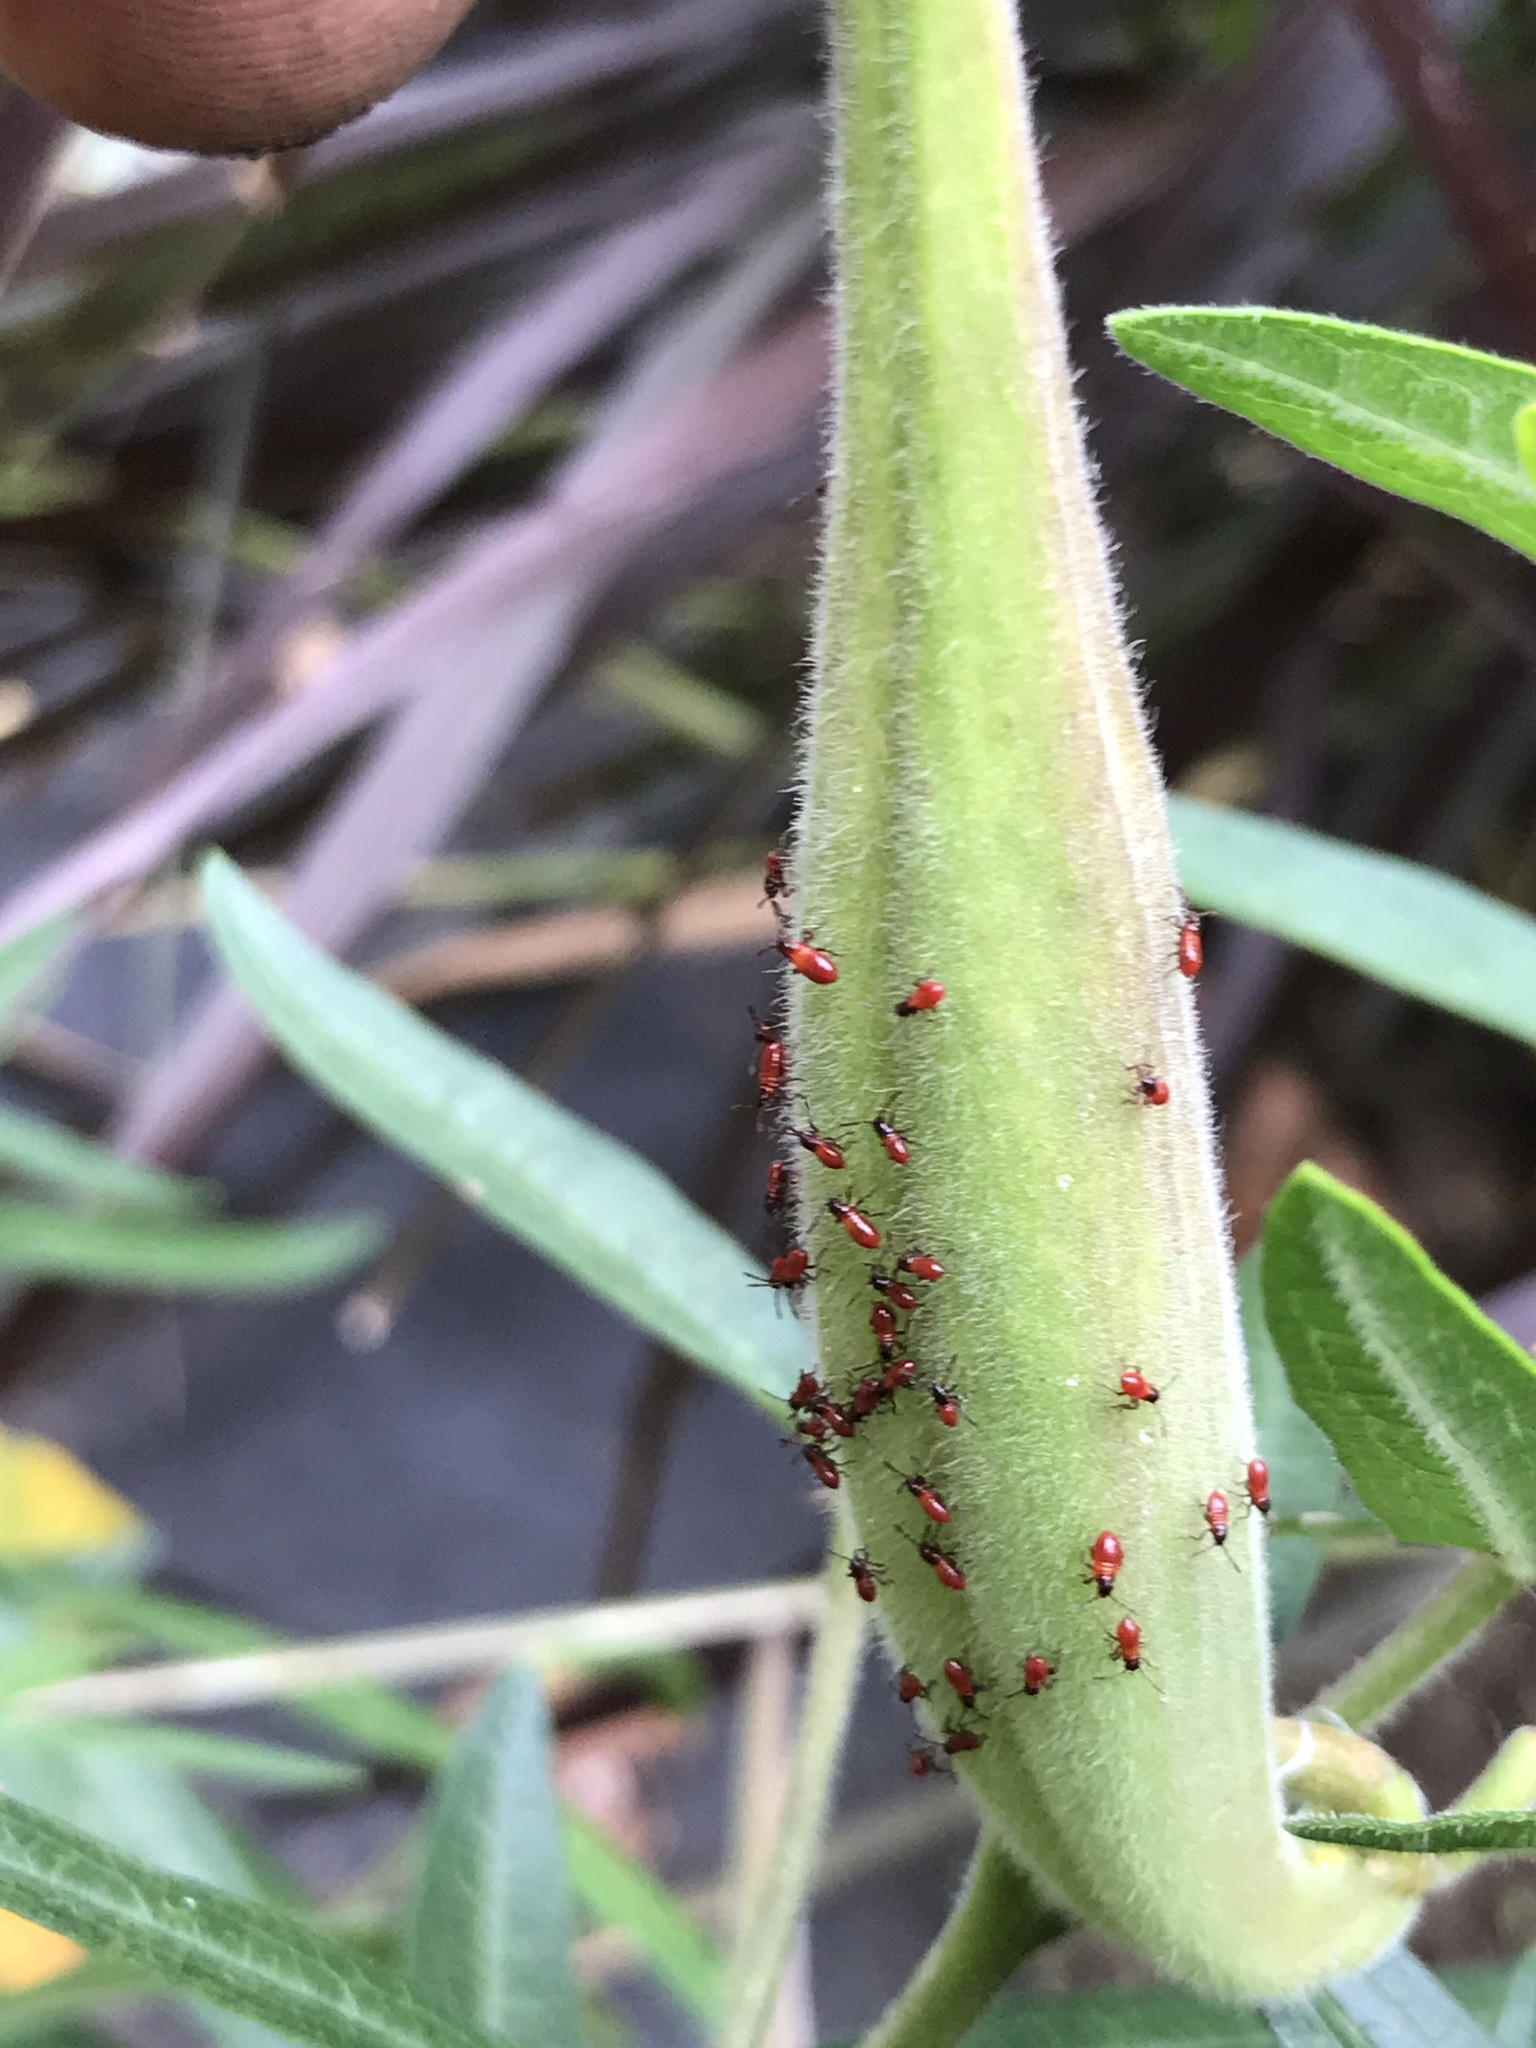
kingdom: Animalia
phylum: Arthropoda
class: Insecta
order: Hemiptera
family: Lygaeidae
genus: Oncopeltus
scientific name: Oncopeltus fasciatus
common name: Large milkweed bug
